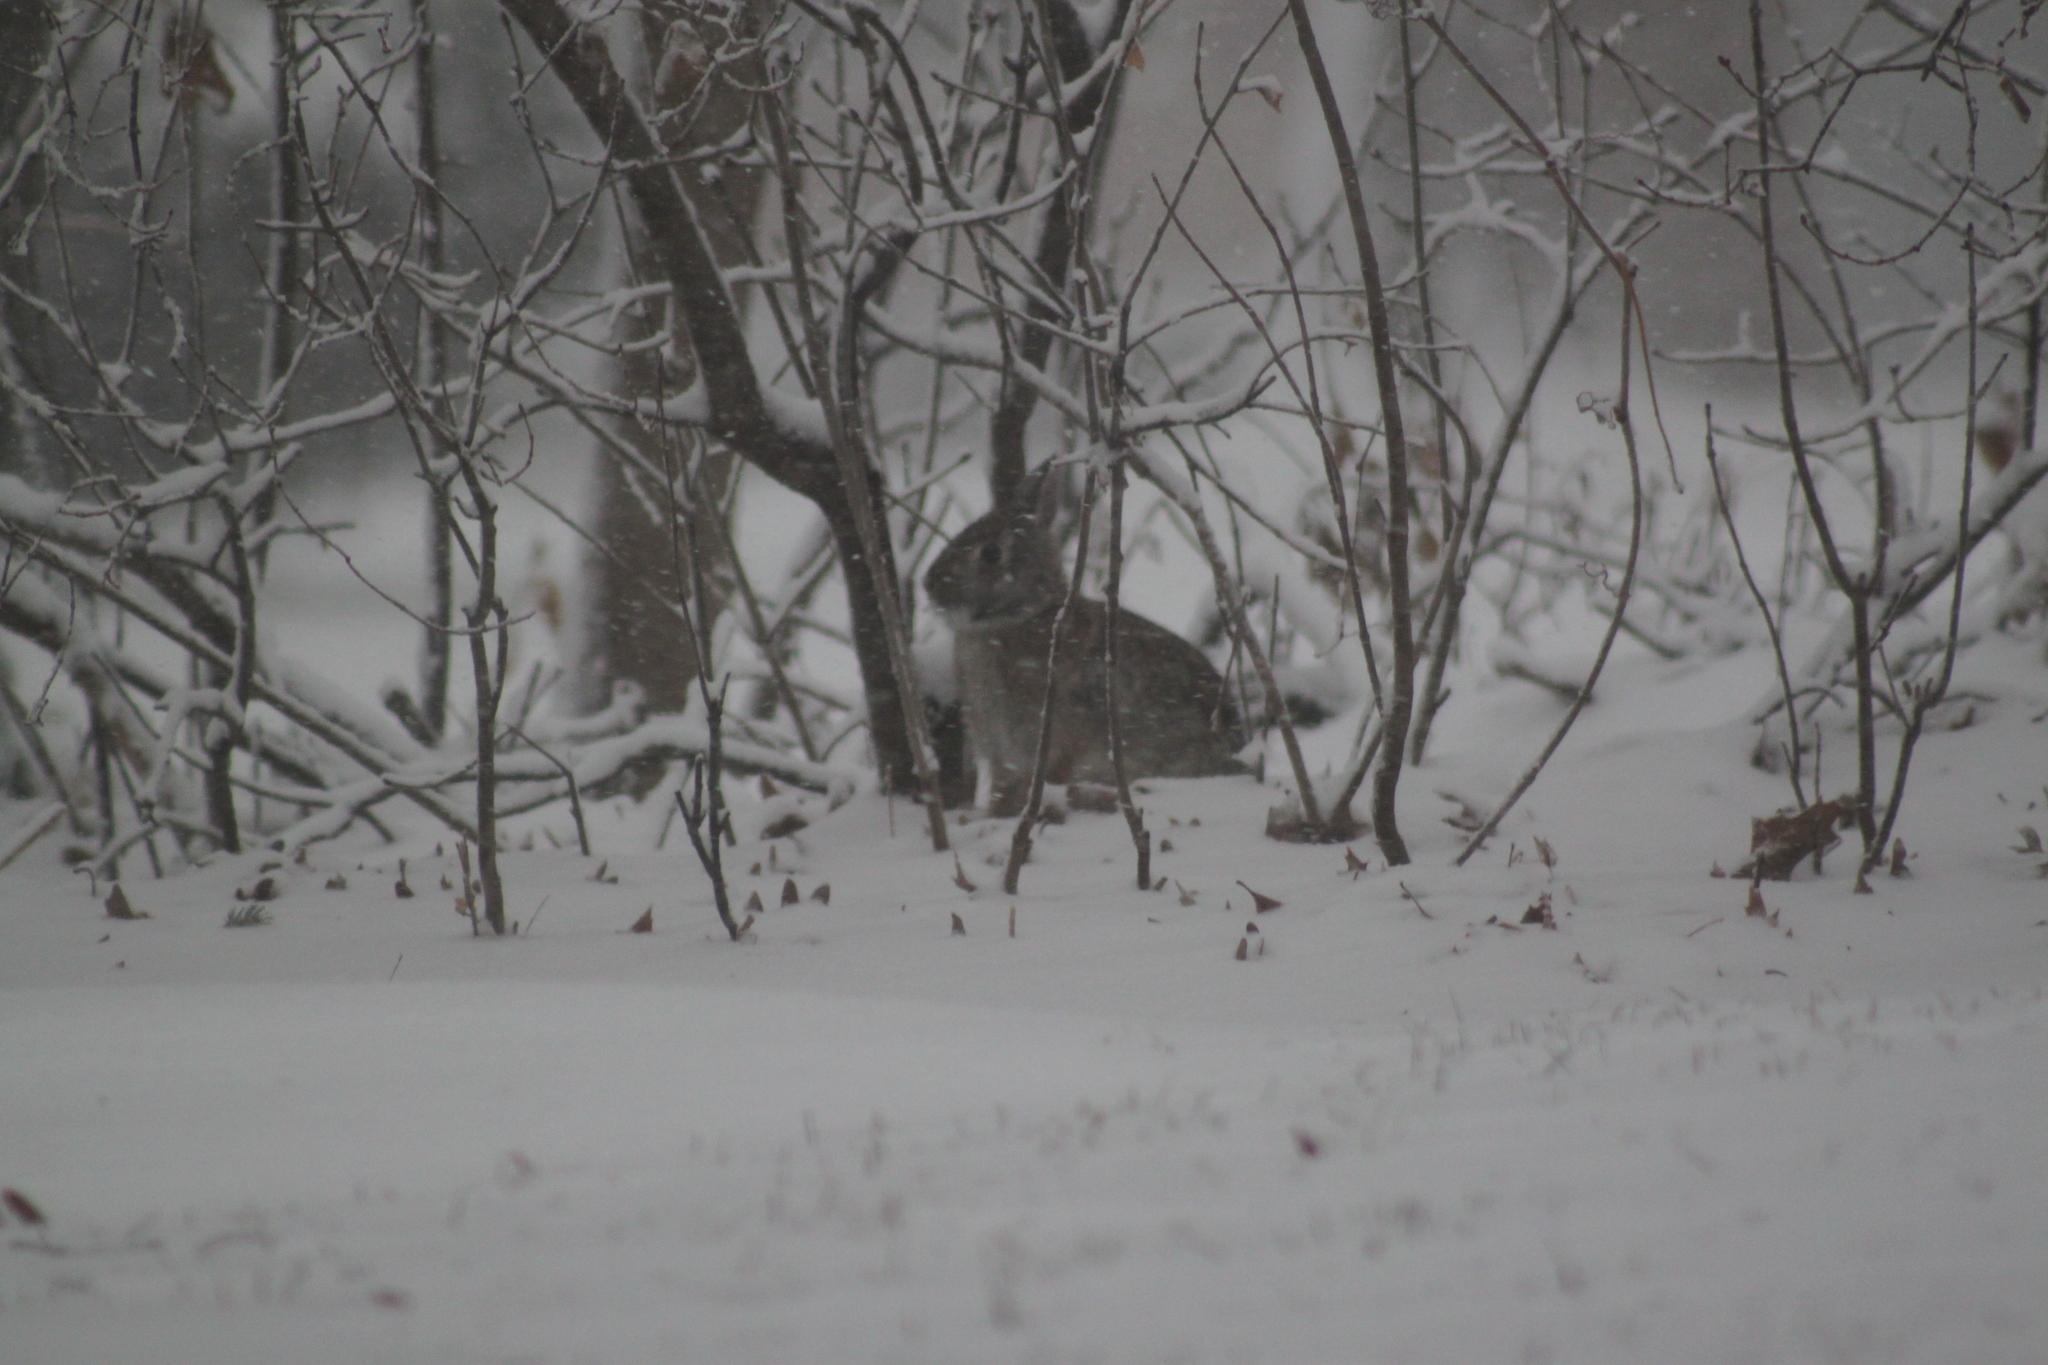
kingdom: Animalia
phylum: Chordata
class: Mammalia
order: Lagomorpha
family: Leporidae
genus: Sylvilagus
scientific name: Sylvilagus floridanus
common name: Eastern cottontail
